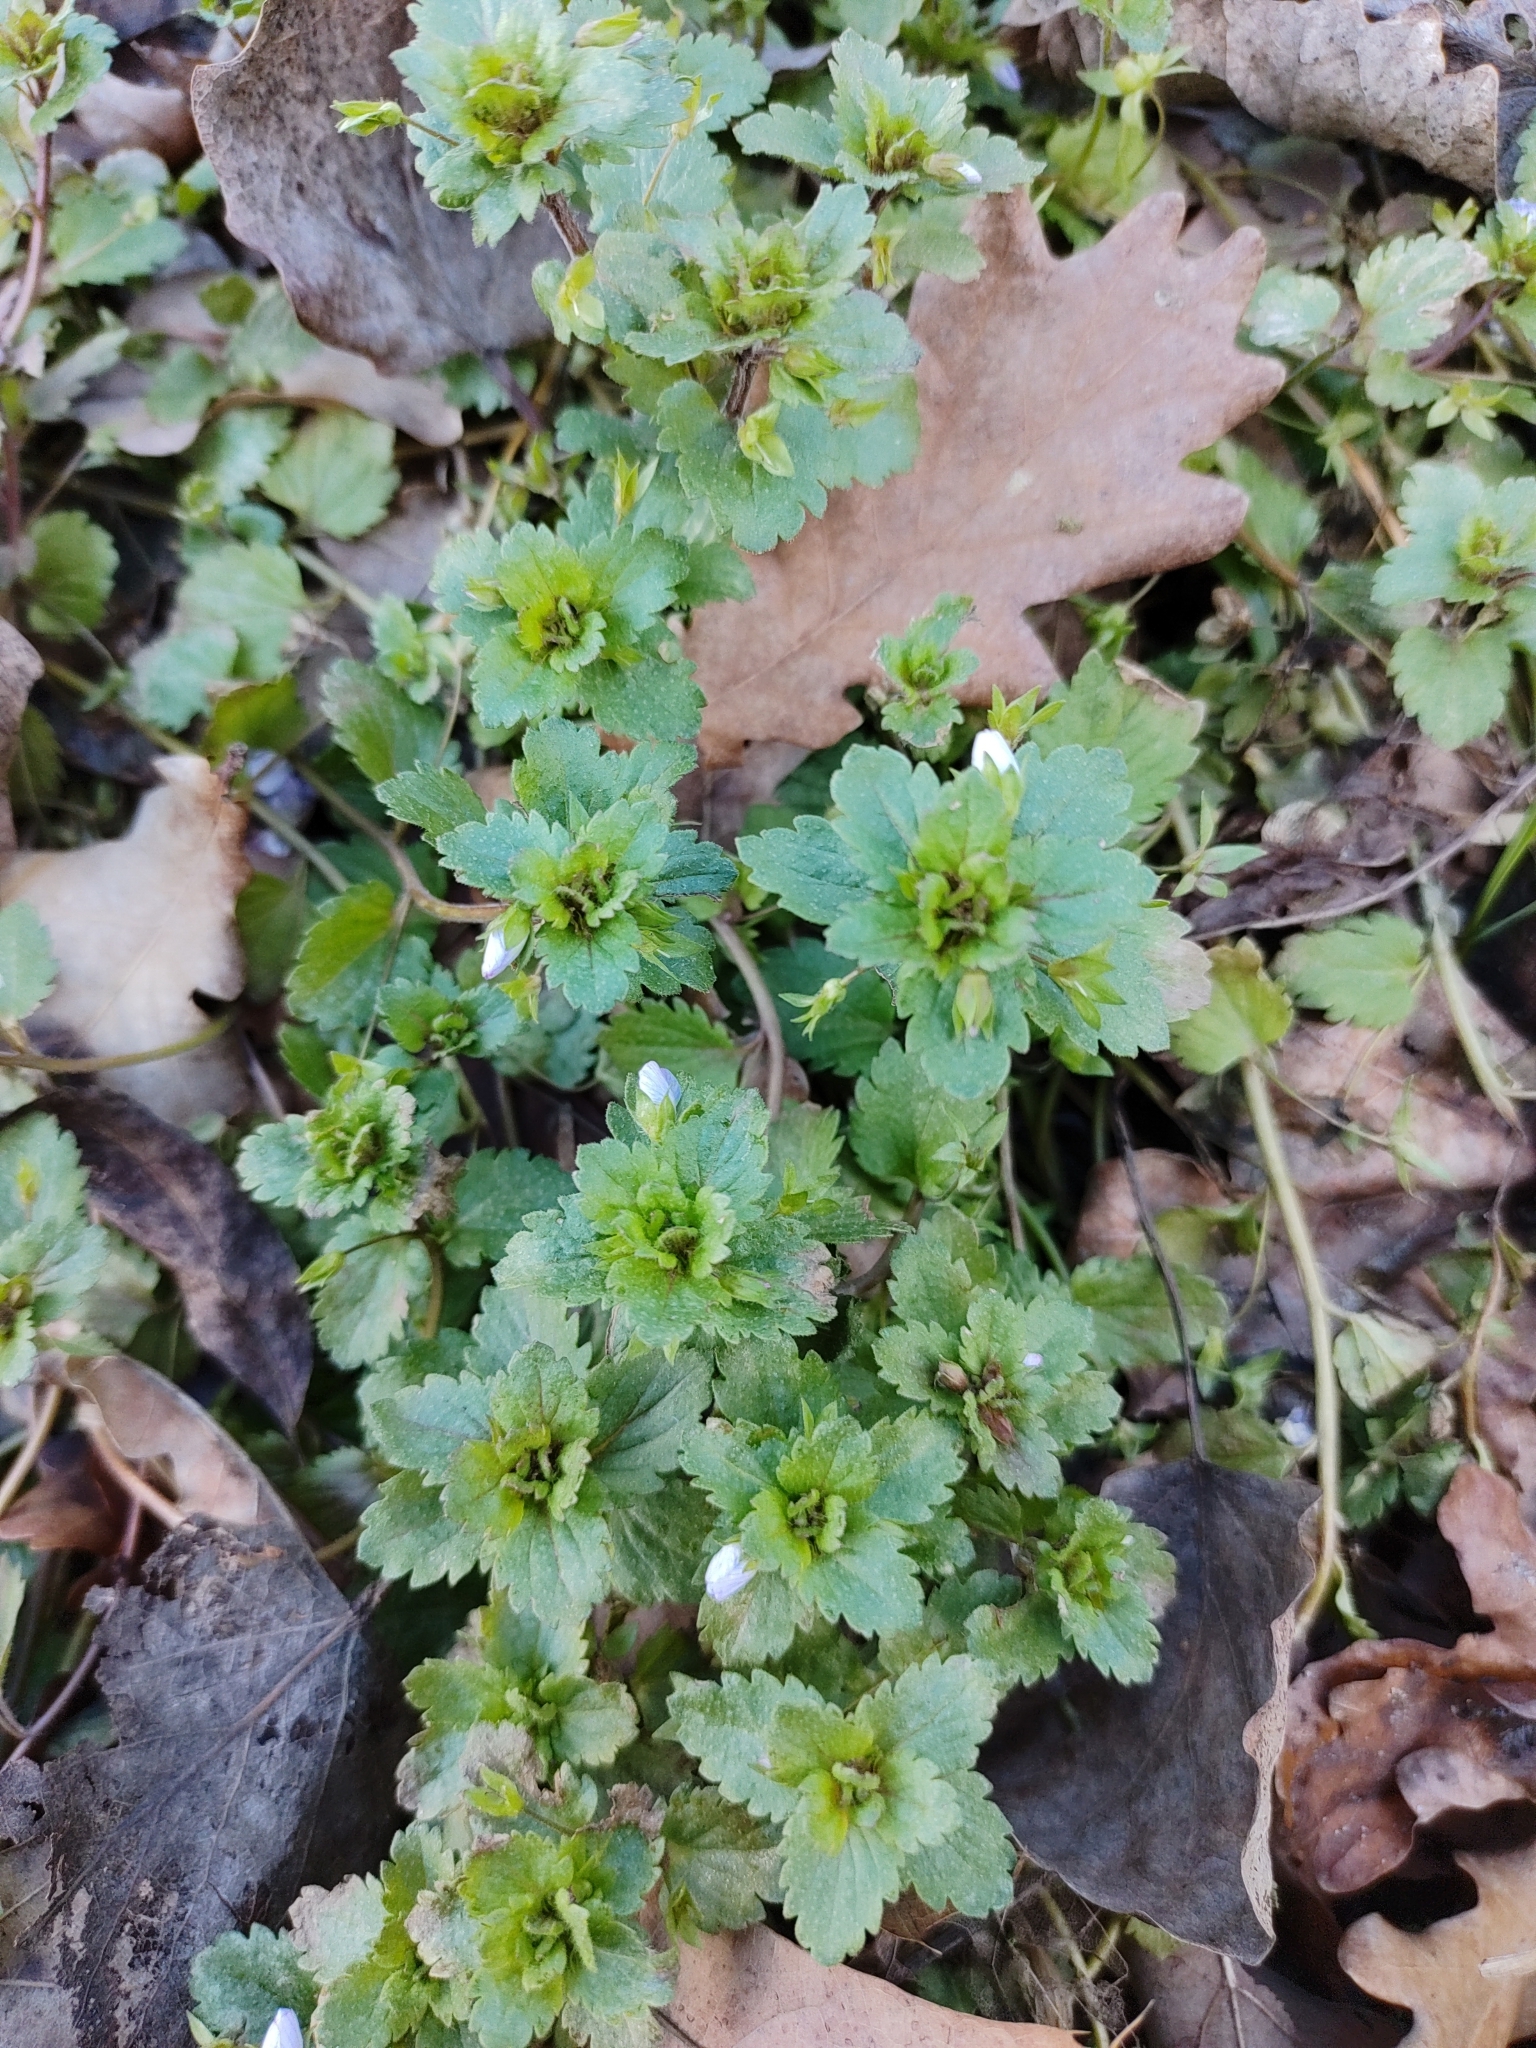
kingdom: Plantae
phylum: Tracheophyta
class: Magnoliopsida
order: Lamiales
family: Plantaginaceae
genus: Veronica
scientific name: Veronica persica
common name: Common field-speedwell
